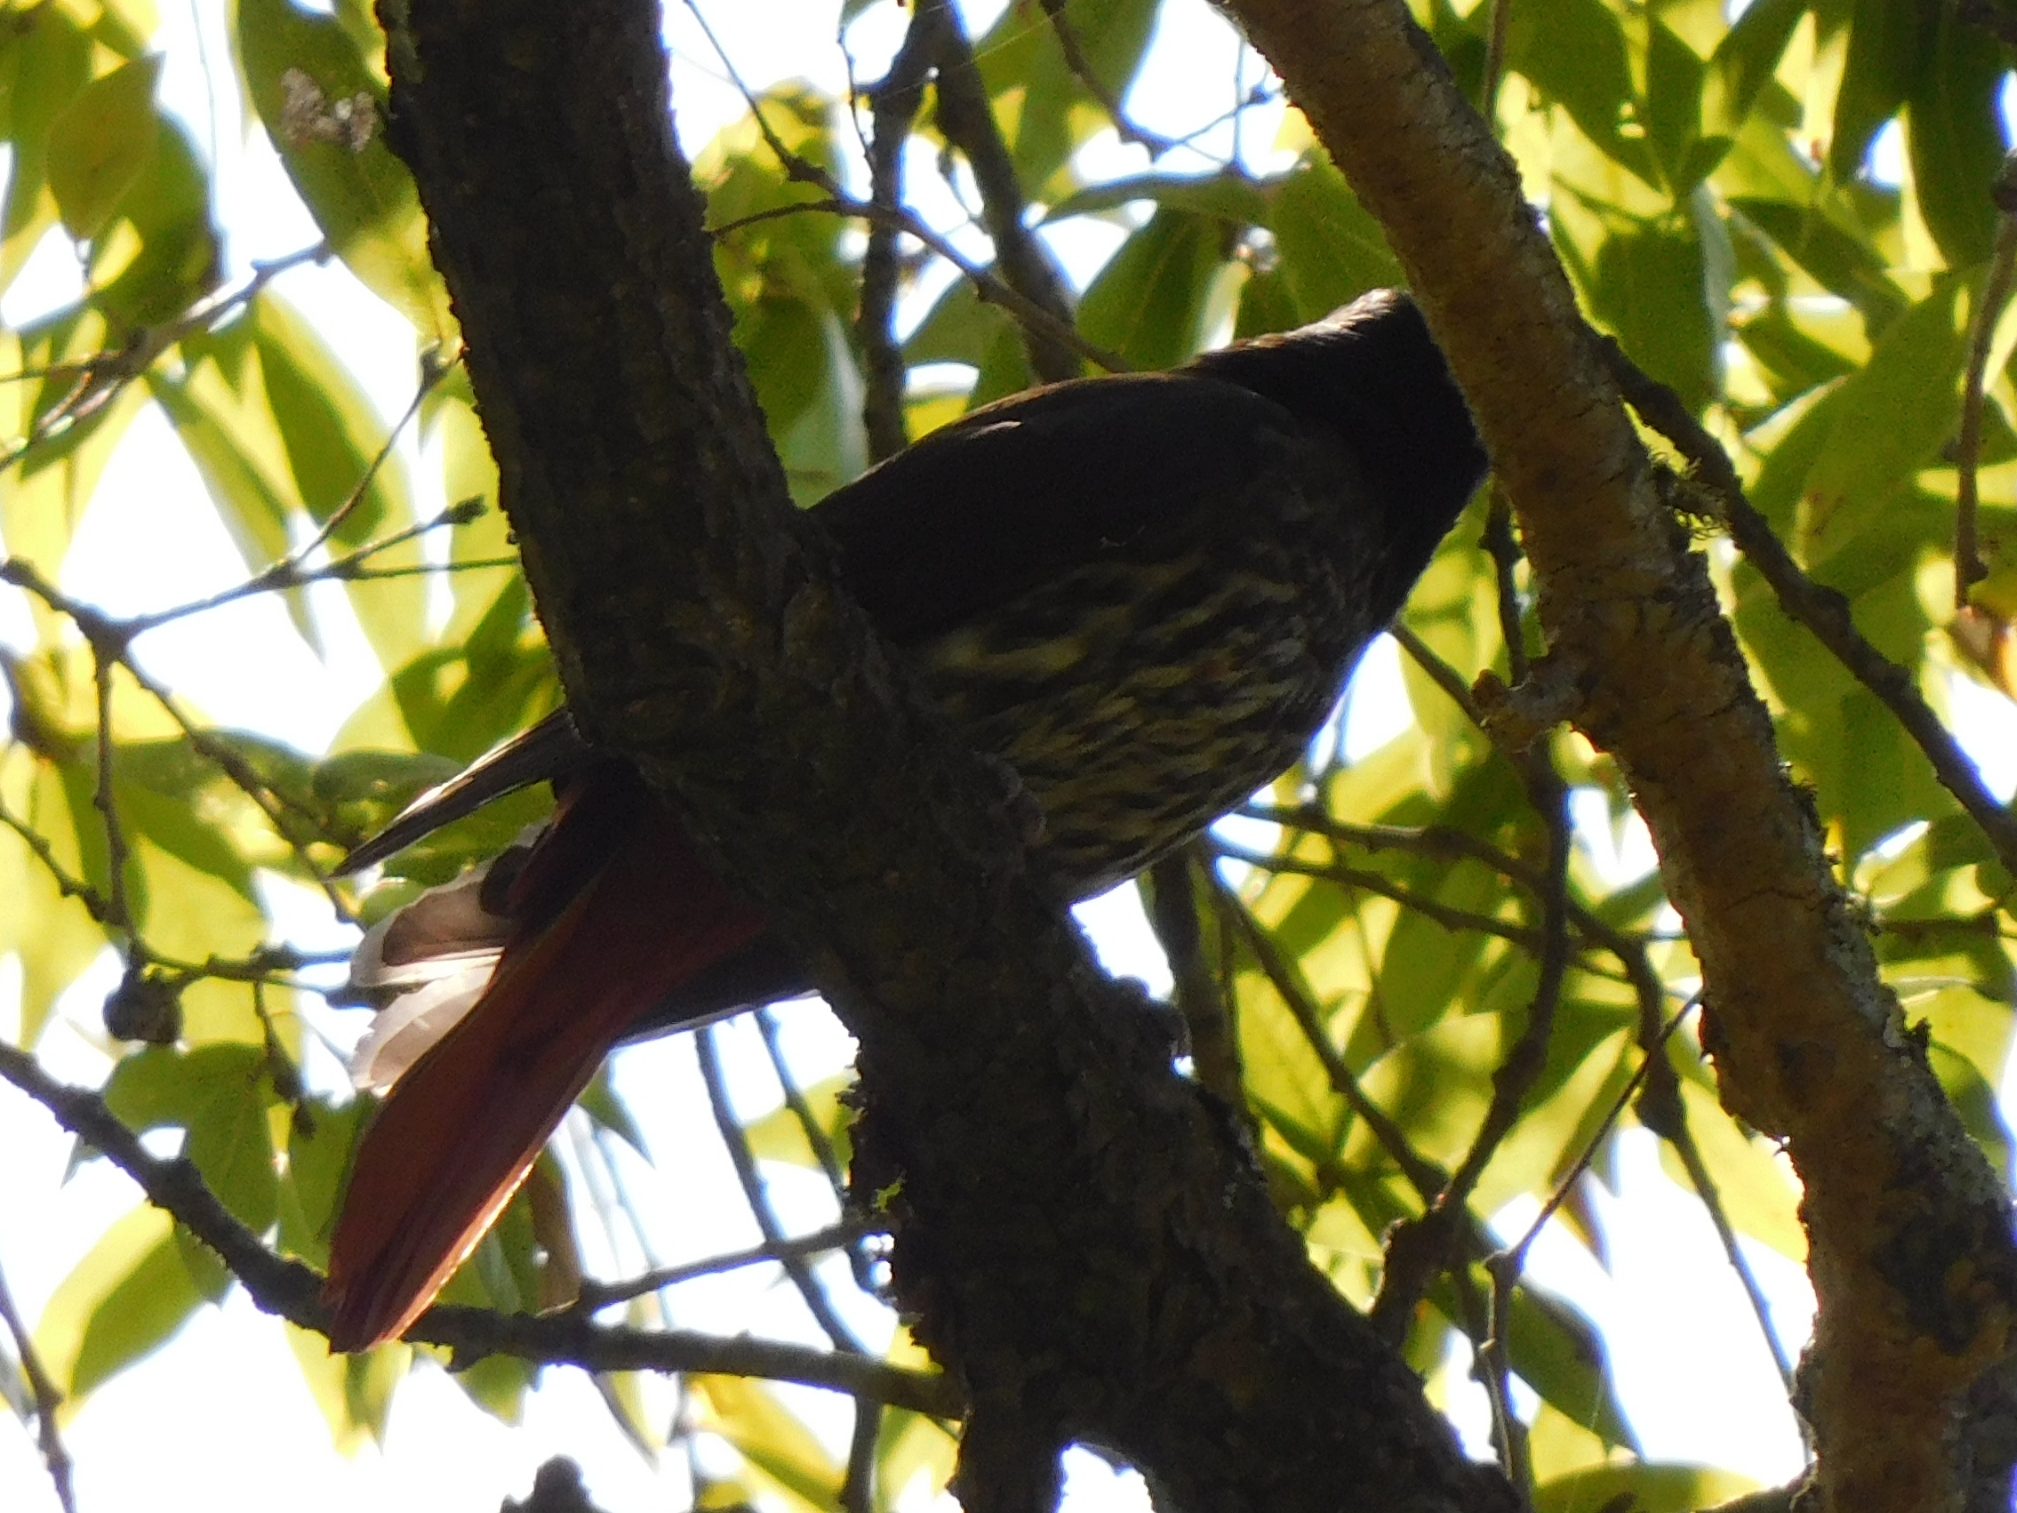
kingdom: Animalia
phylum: Chordata
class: Aves
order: Passeriformes
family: Oriolidae
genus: Oriolus
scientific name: Oriolus traillii
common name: Maroon oriole
